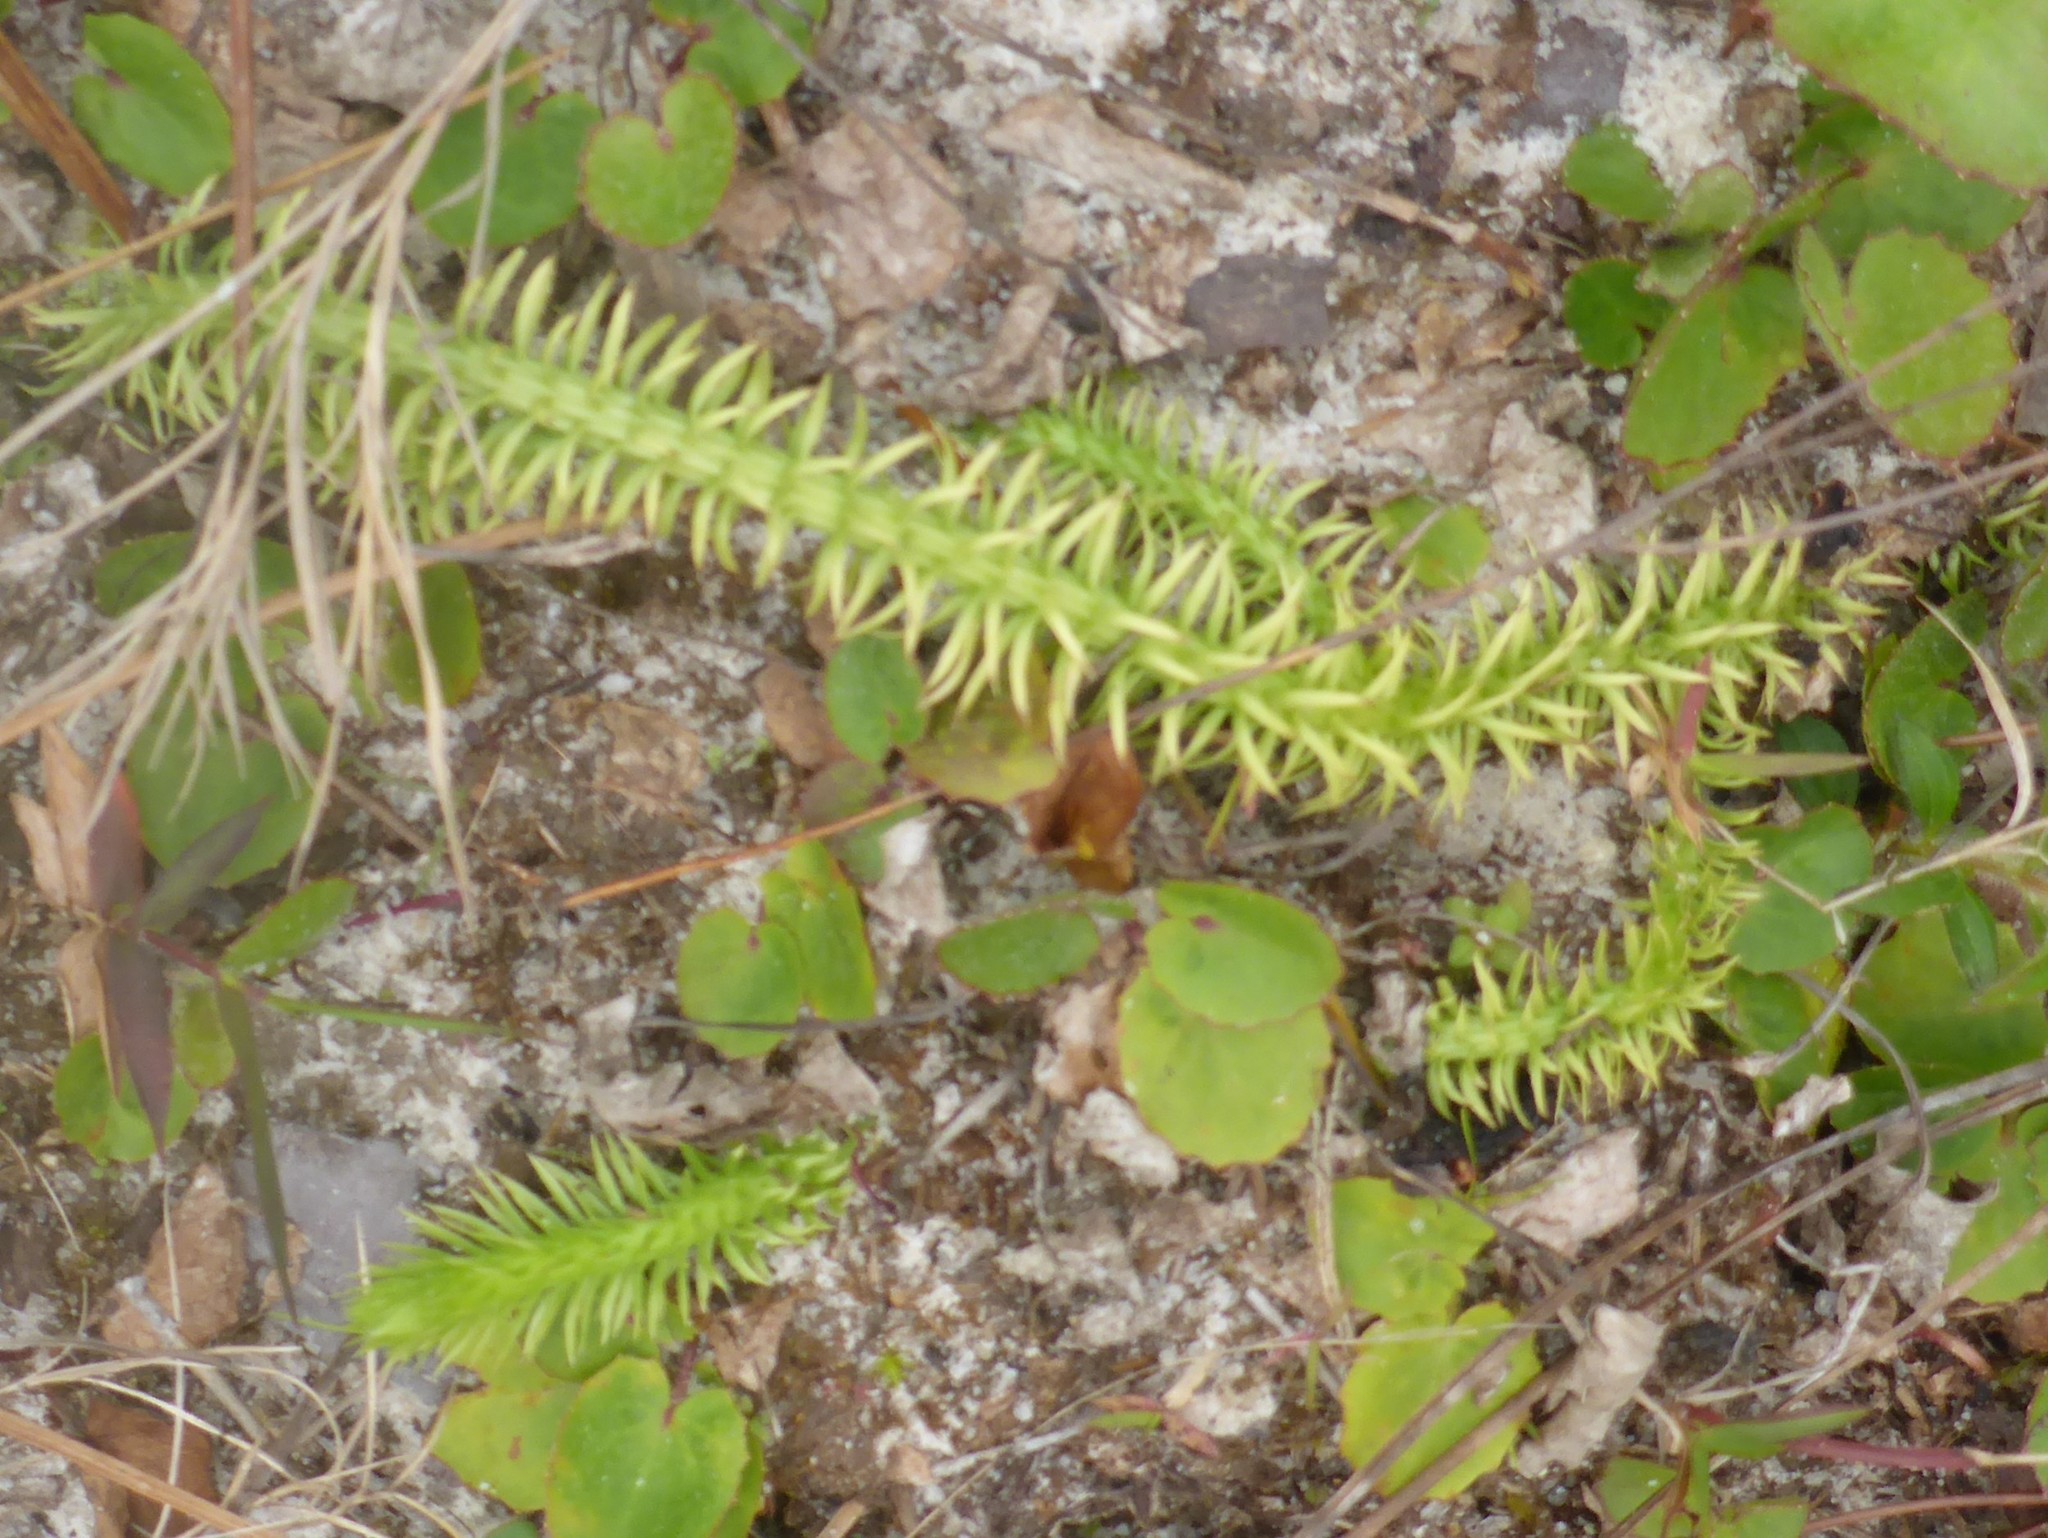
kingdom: Plantae
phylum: Tracheophyta
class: Lycopodiopsida
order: Lycopodiales
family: Lycopodiaceae
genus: Lycopodiella
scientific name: Lycopodiella prostrata
